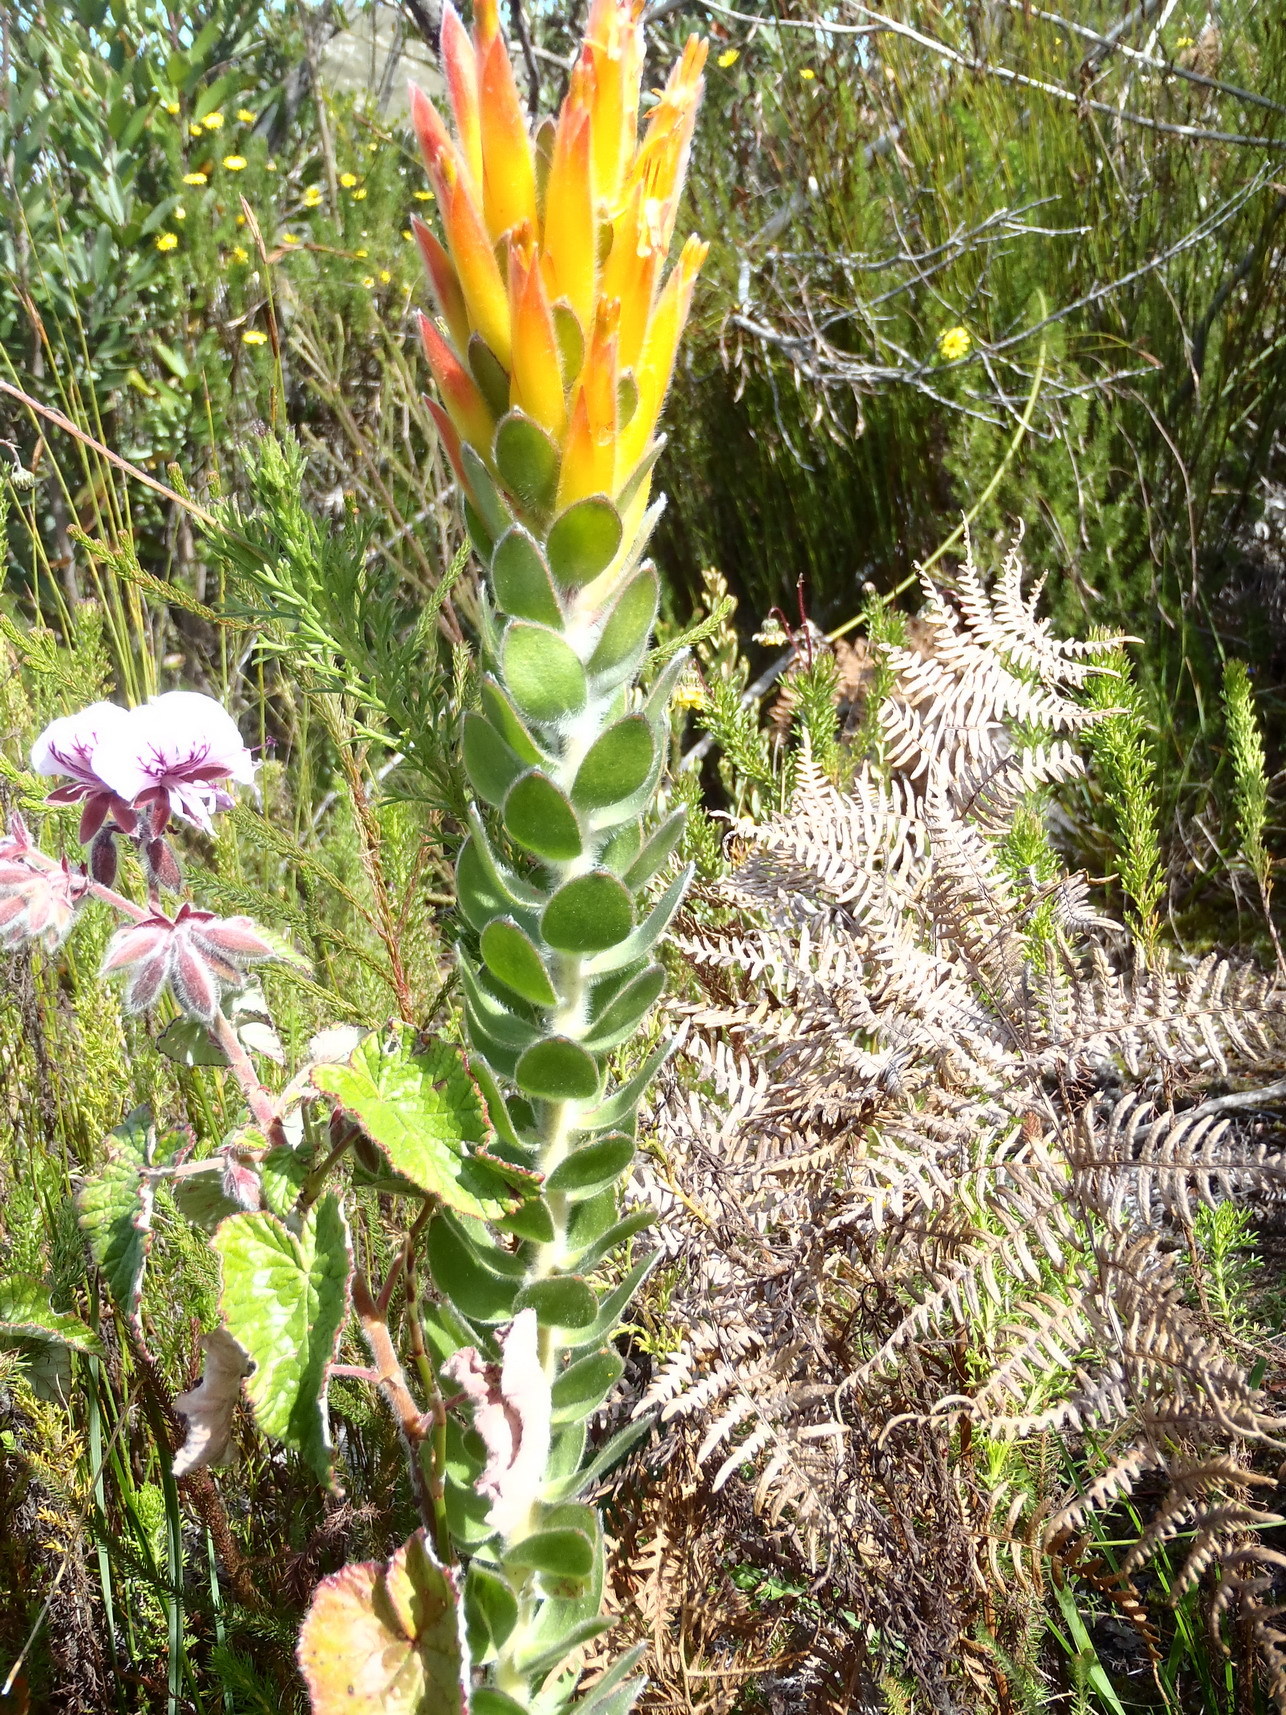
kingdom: Plantae
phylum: Tracheophyta
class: Magnoliopsida
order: Proteales
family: Proteaceae
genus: Mimetes
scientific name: Mimetes pauciflora
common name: Three-flowered pagoda
